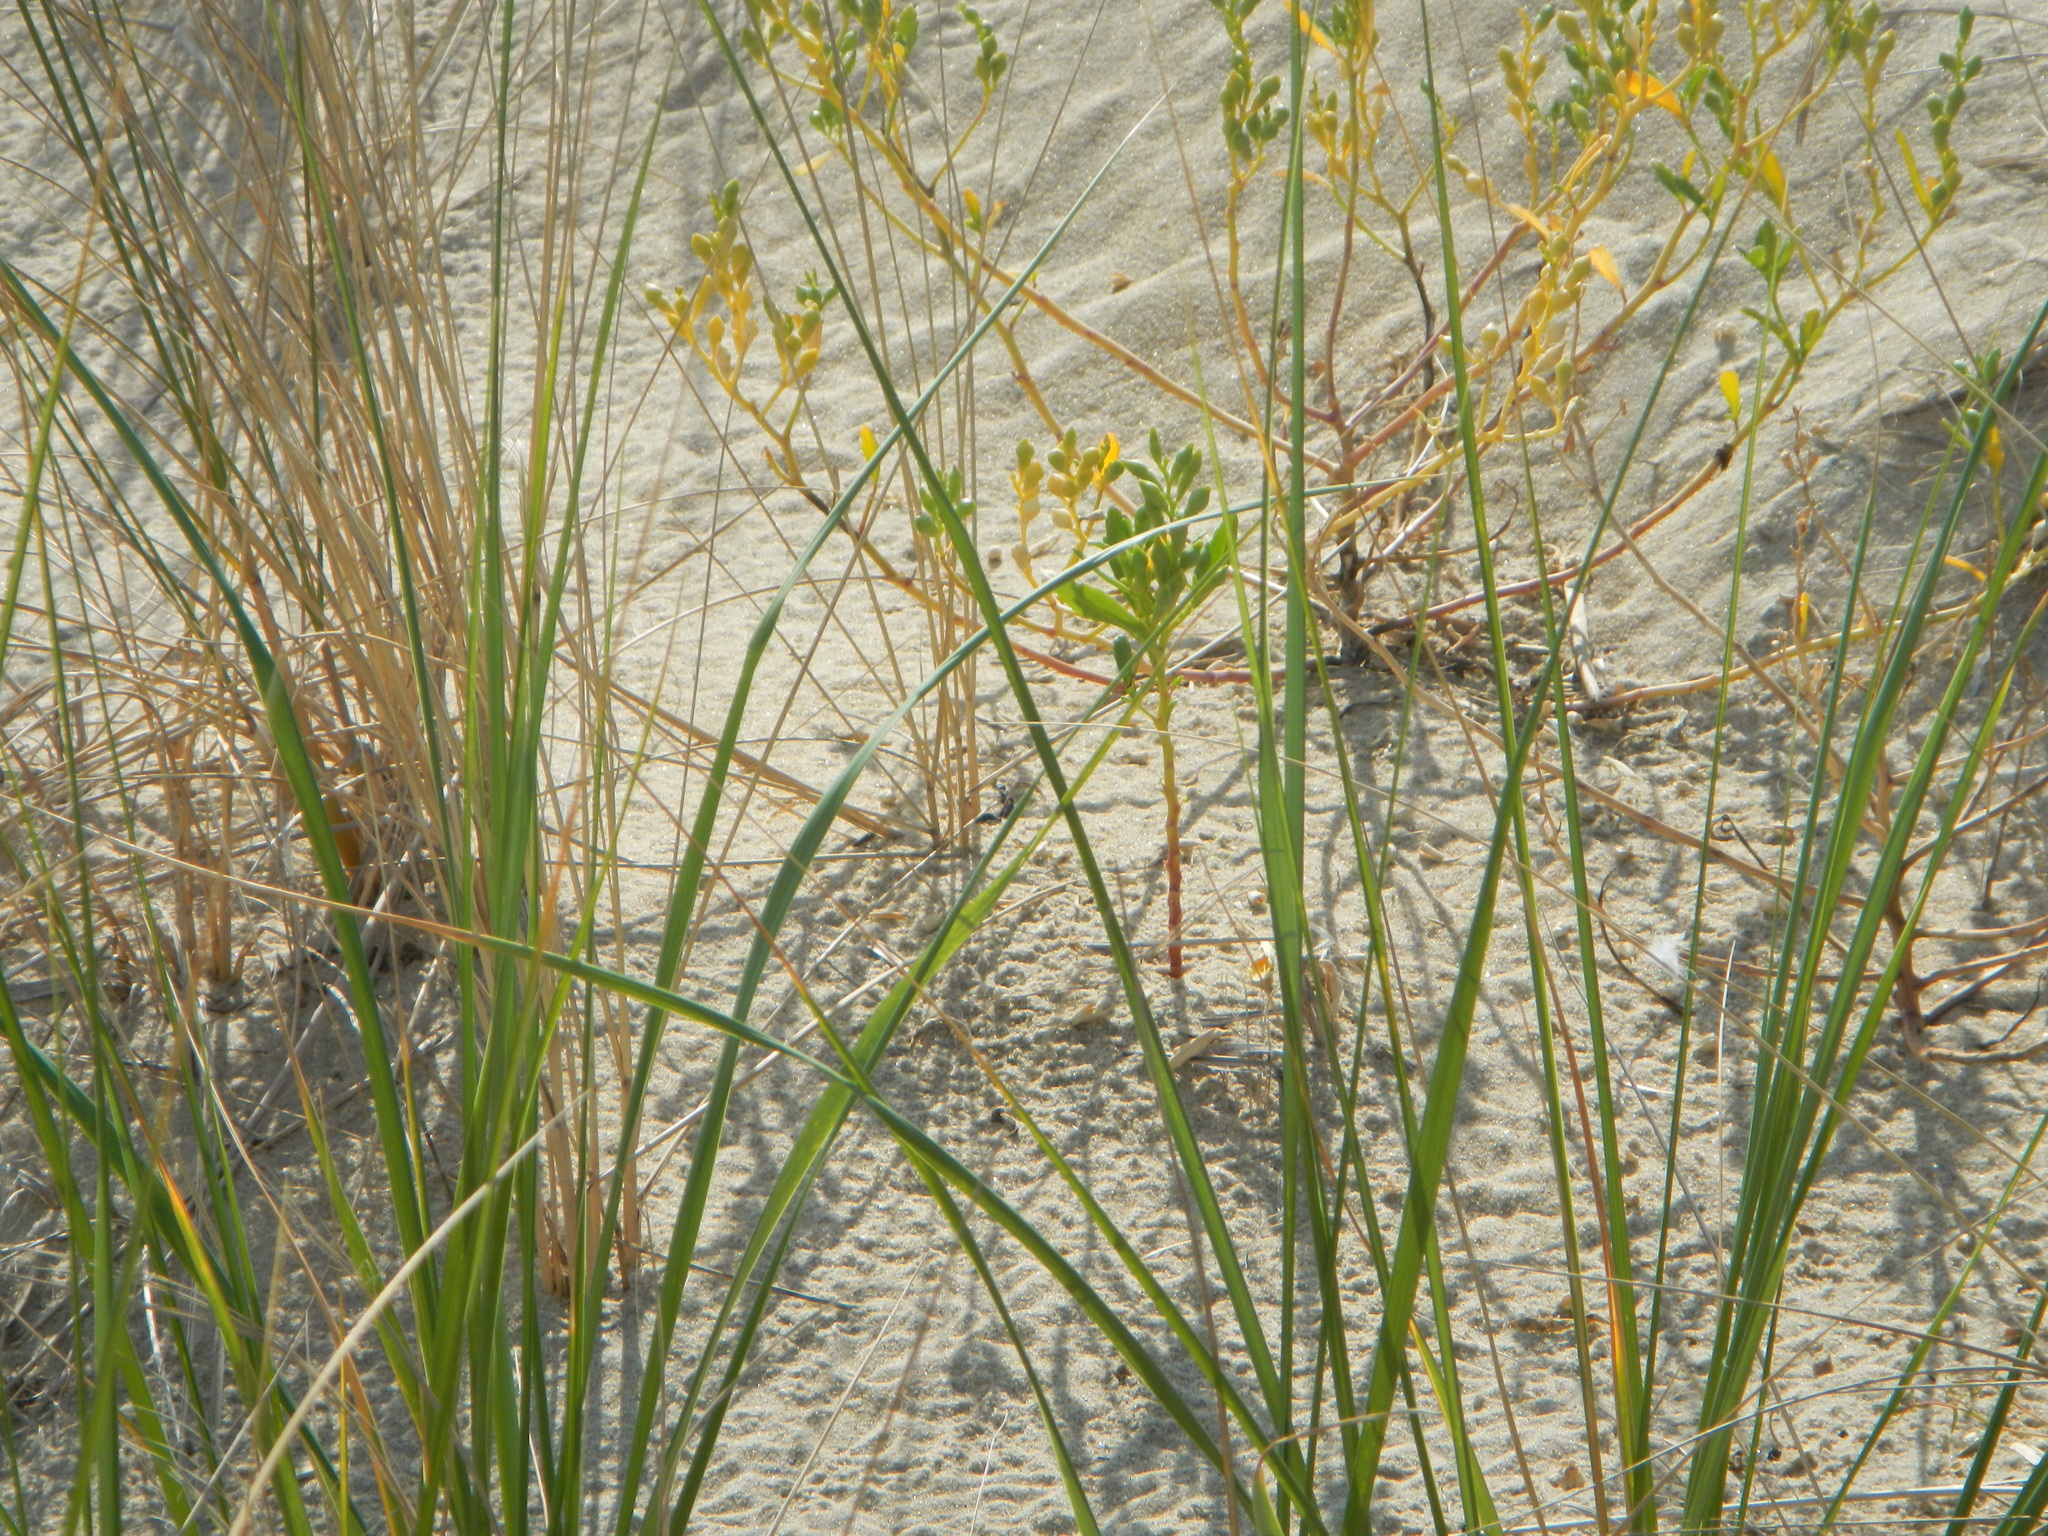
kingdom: Plantae
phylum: Tracheophyta
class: Magnoliopsida
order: Brassicales
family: Brassicaceae
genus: Cakile
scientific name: Cakile edentula
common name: American sea rocket
